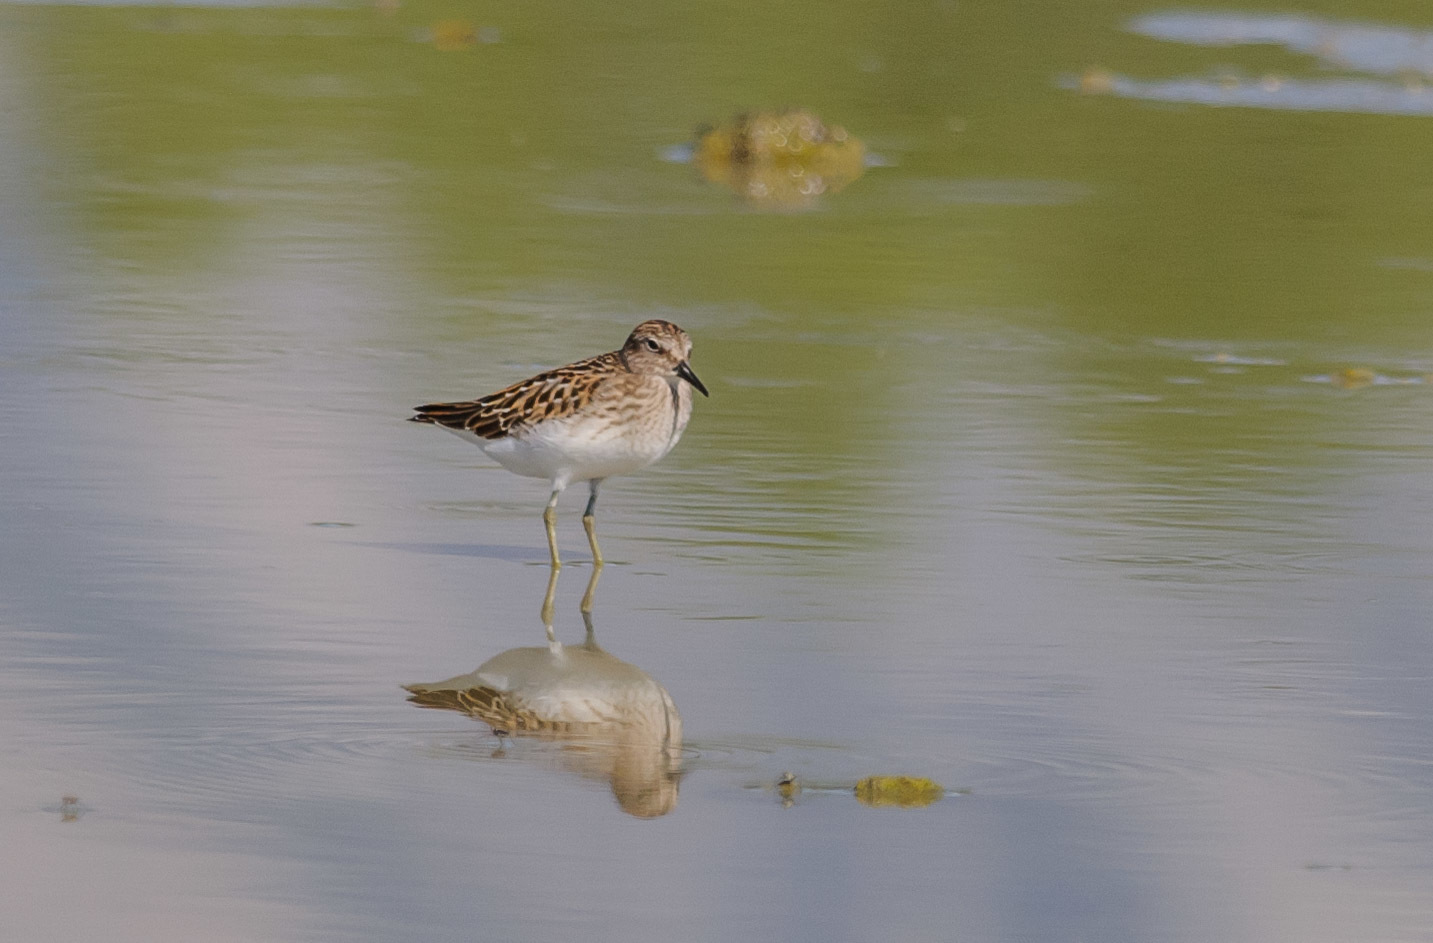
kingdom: Animalia
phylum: Chordata
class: Aves
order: Charadriiformes
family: Scolopacidae
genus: Calidris
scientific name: Calidris minutilla
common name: Least sandpiper
